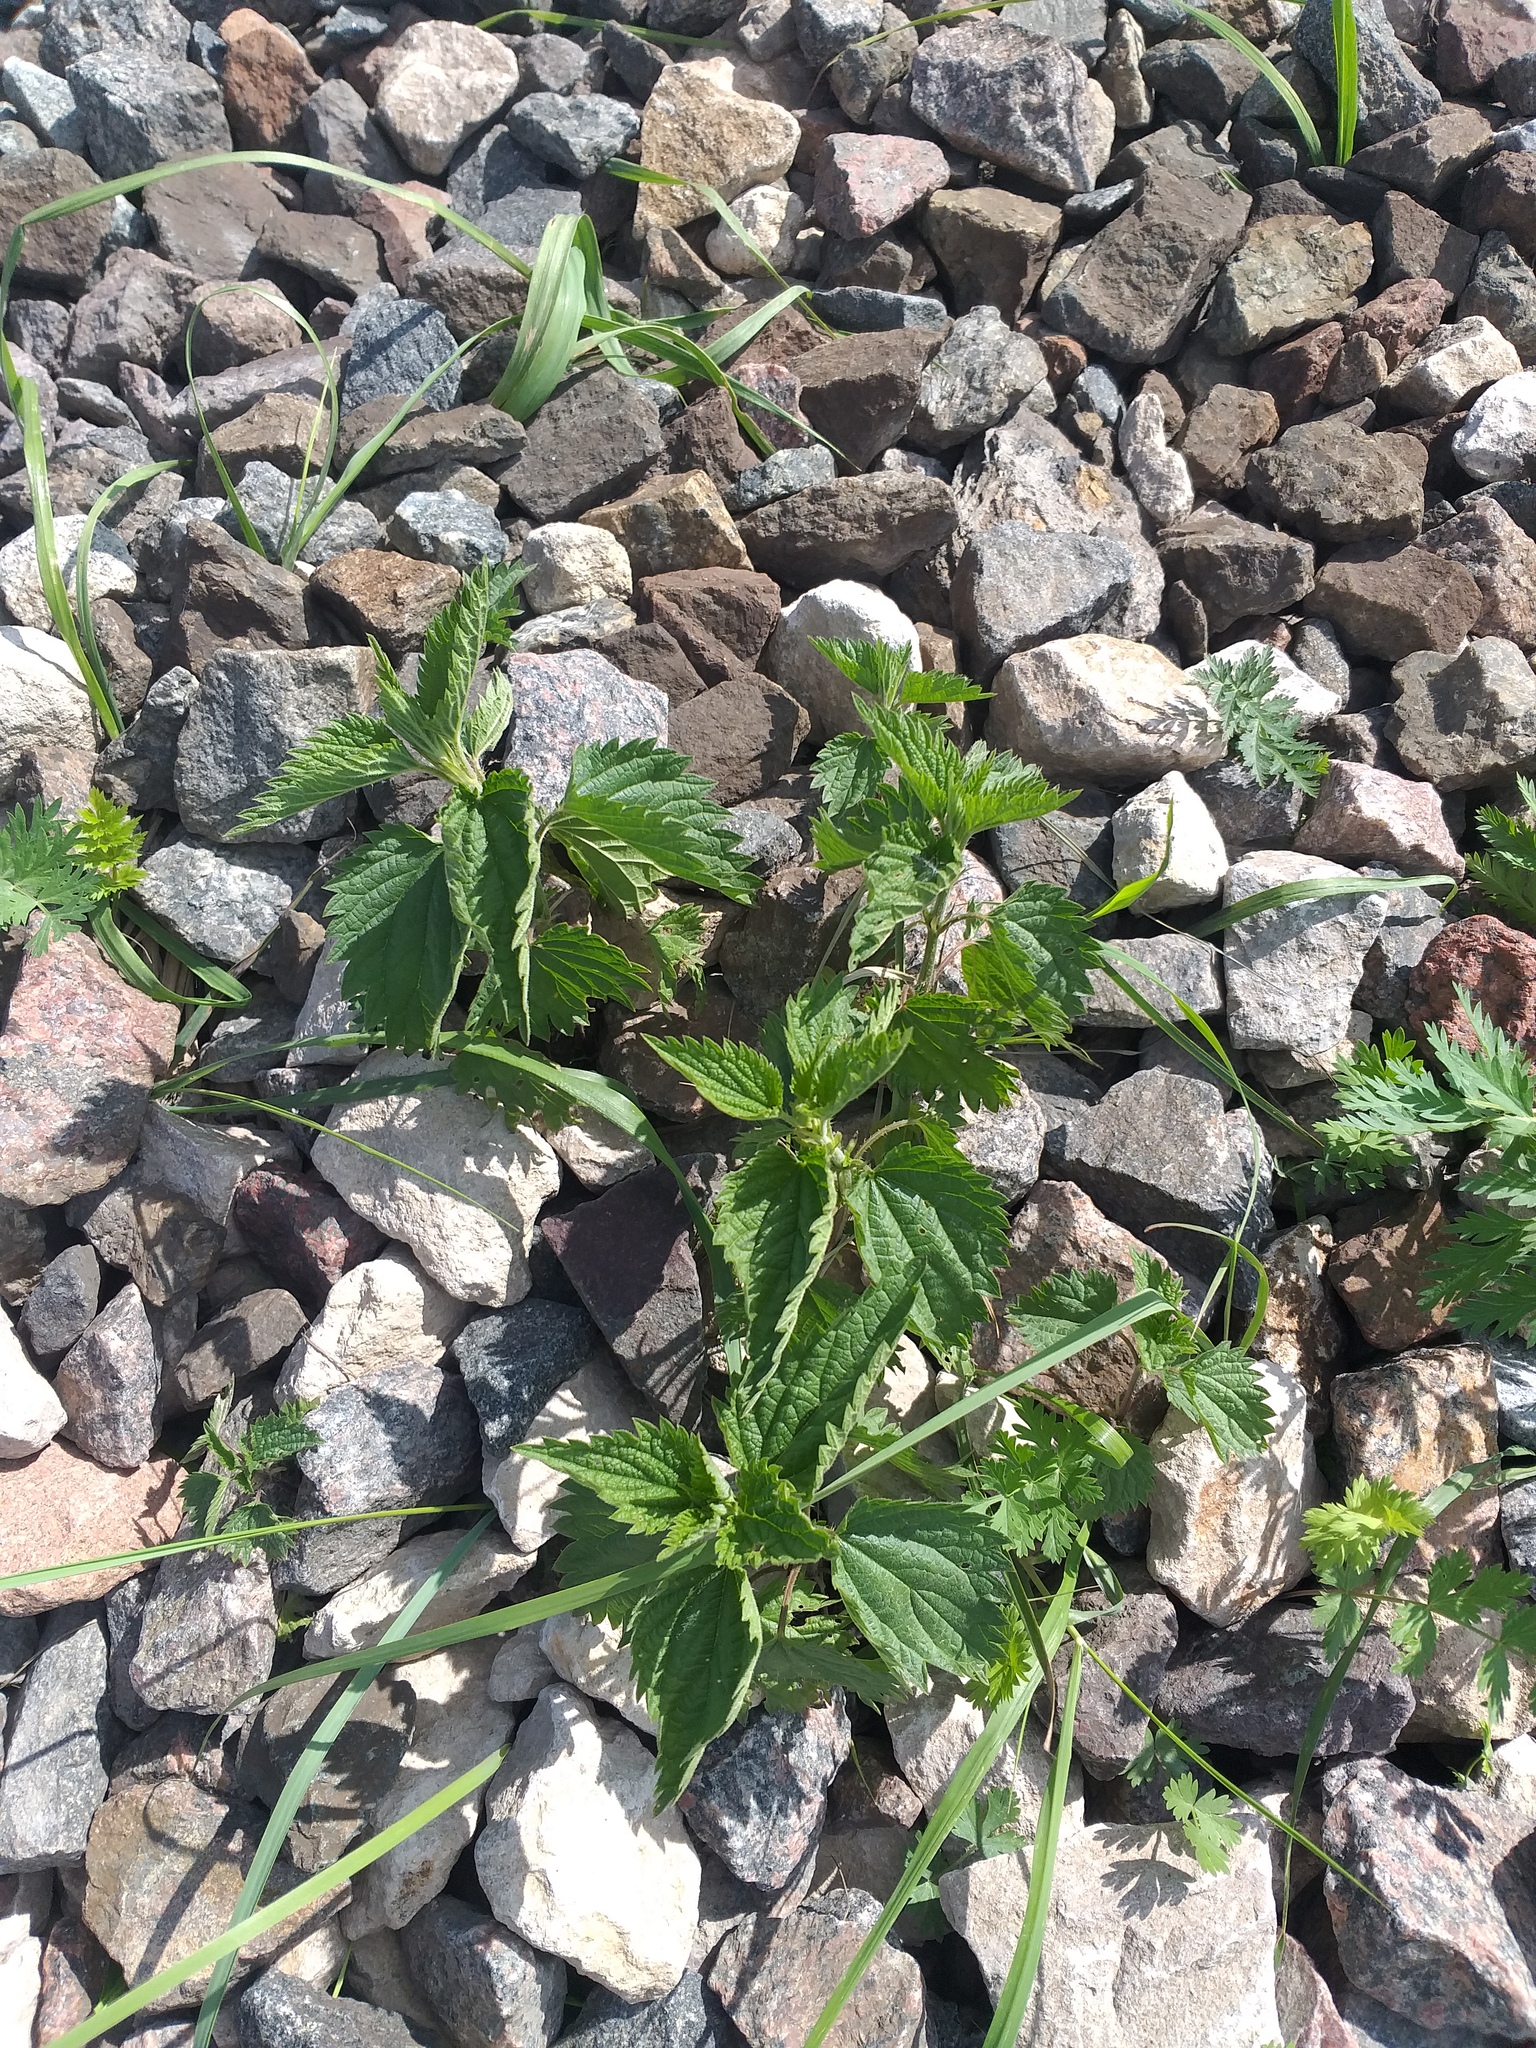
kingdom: Plantae
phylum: Tracheophyta
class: Magnoliopsida
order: Rosales
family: Urticaceae
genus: Urtica
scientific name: Urtica dioica
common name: Common nettle
